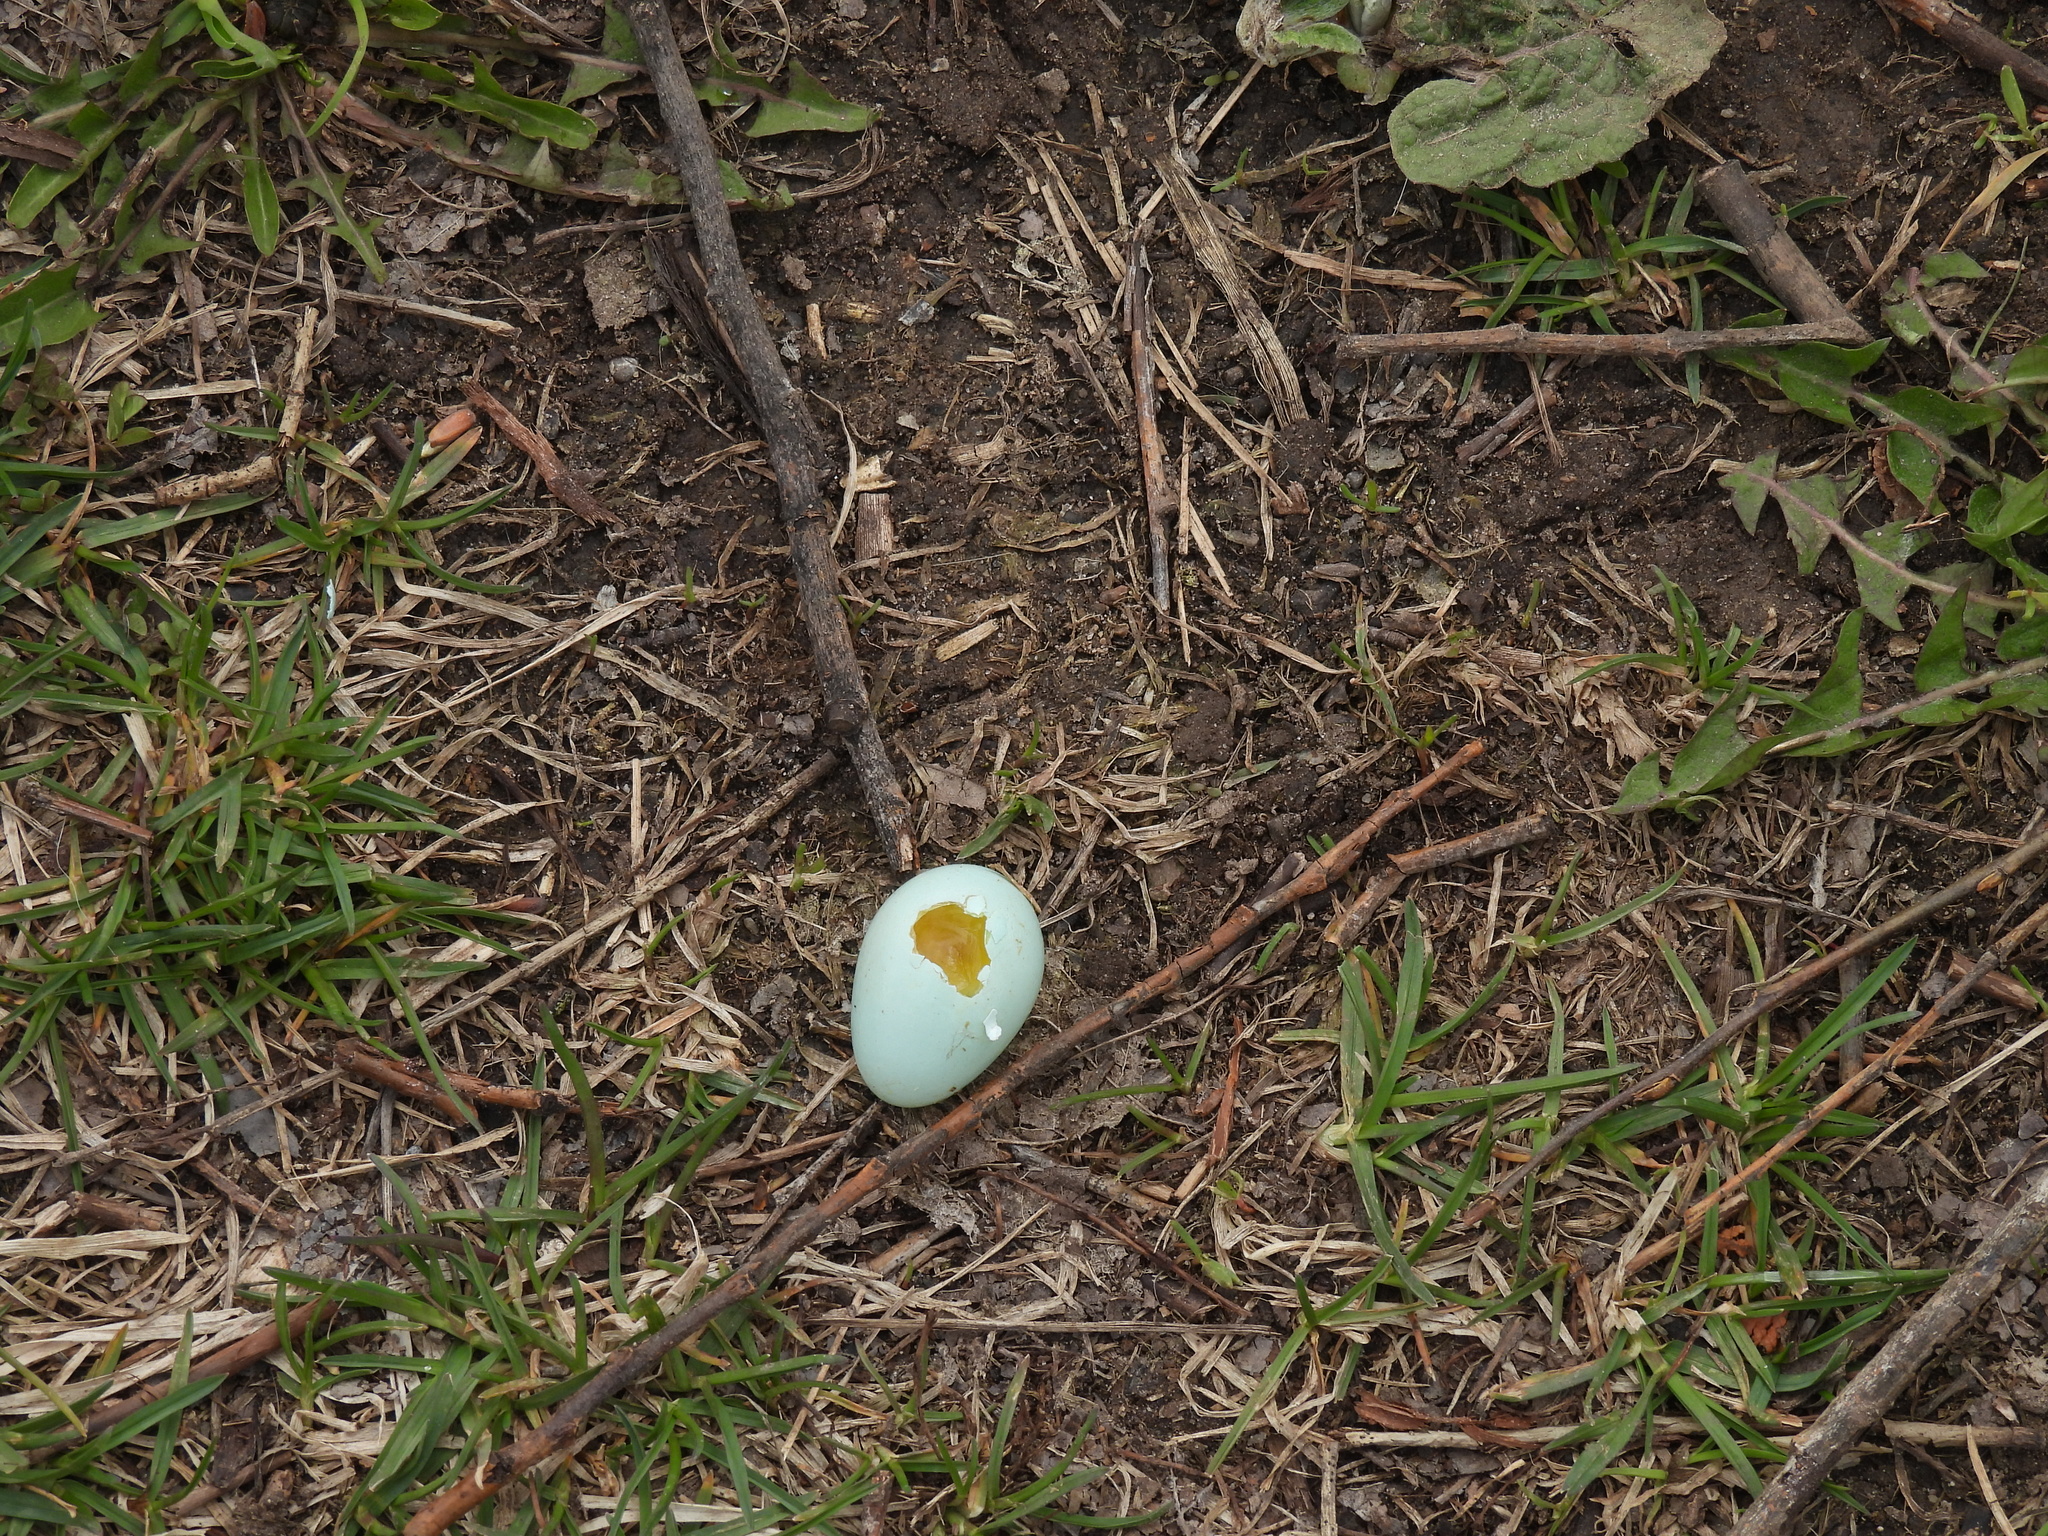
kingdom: Animalia
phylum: Chordata
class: Aves
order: Passeriformes
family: Turdidae
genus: Turdus
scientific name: Turdus migratorius
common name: American robin
